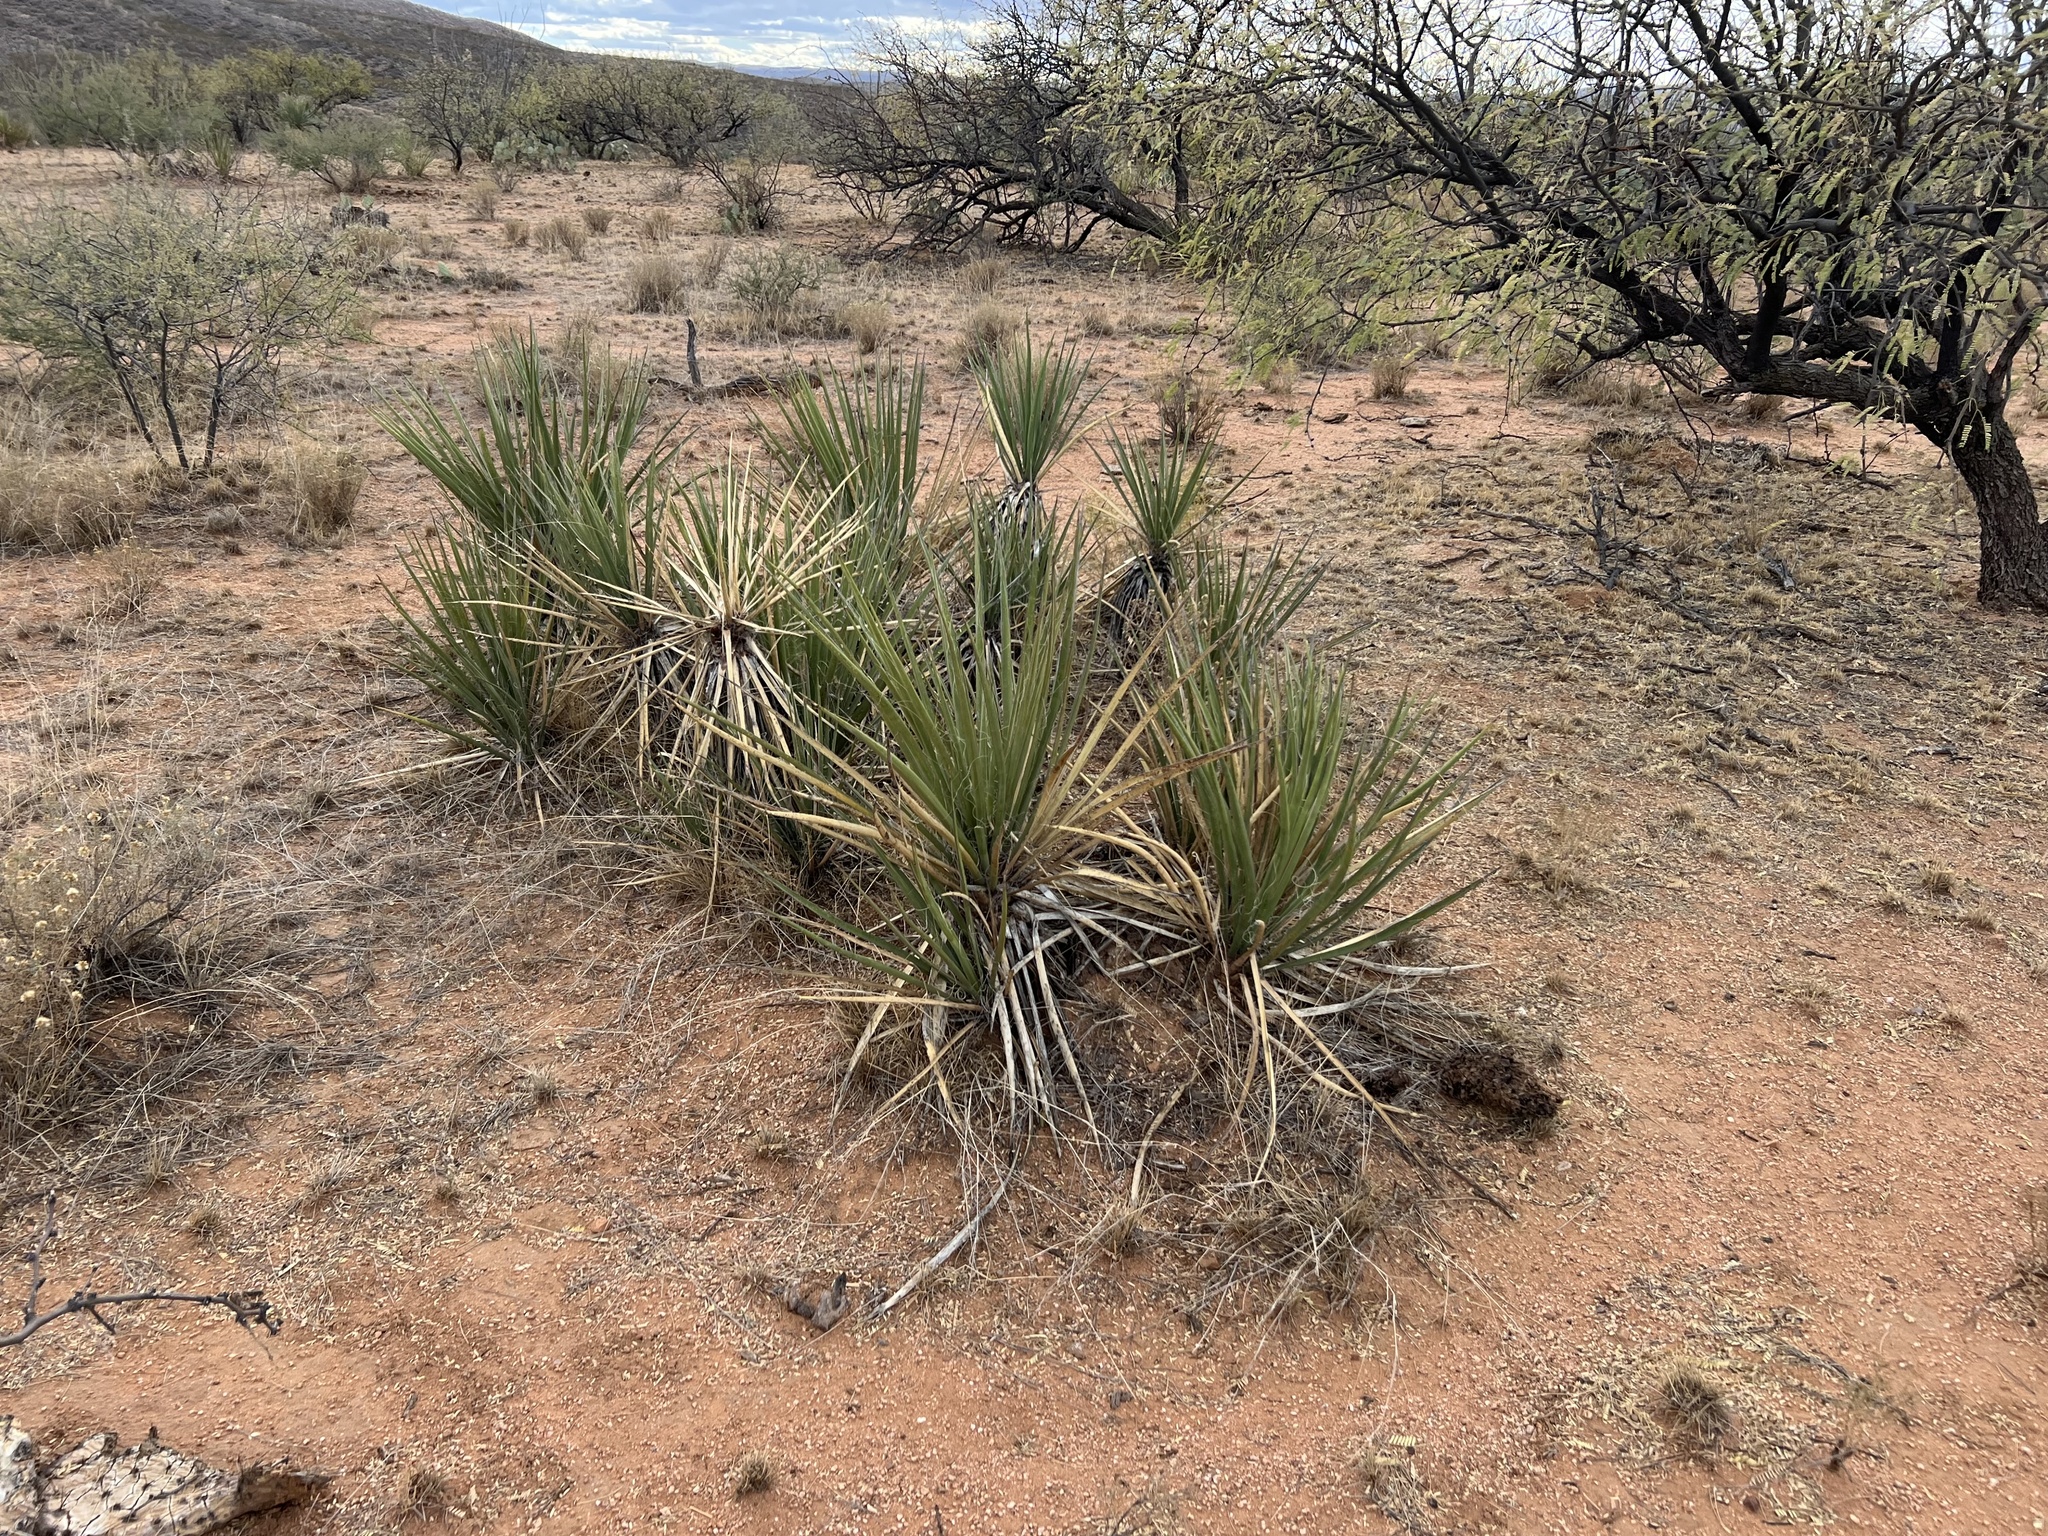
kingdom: Plantae
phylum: Tracheophyta
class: Liliopsida
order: Asparagales
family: Asparagaceae
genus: Yucca
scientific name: Yucca baccata
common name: Banana yucca
